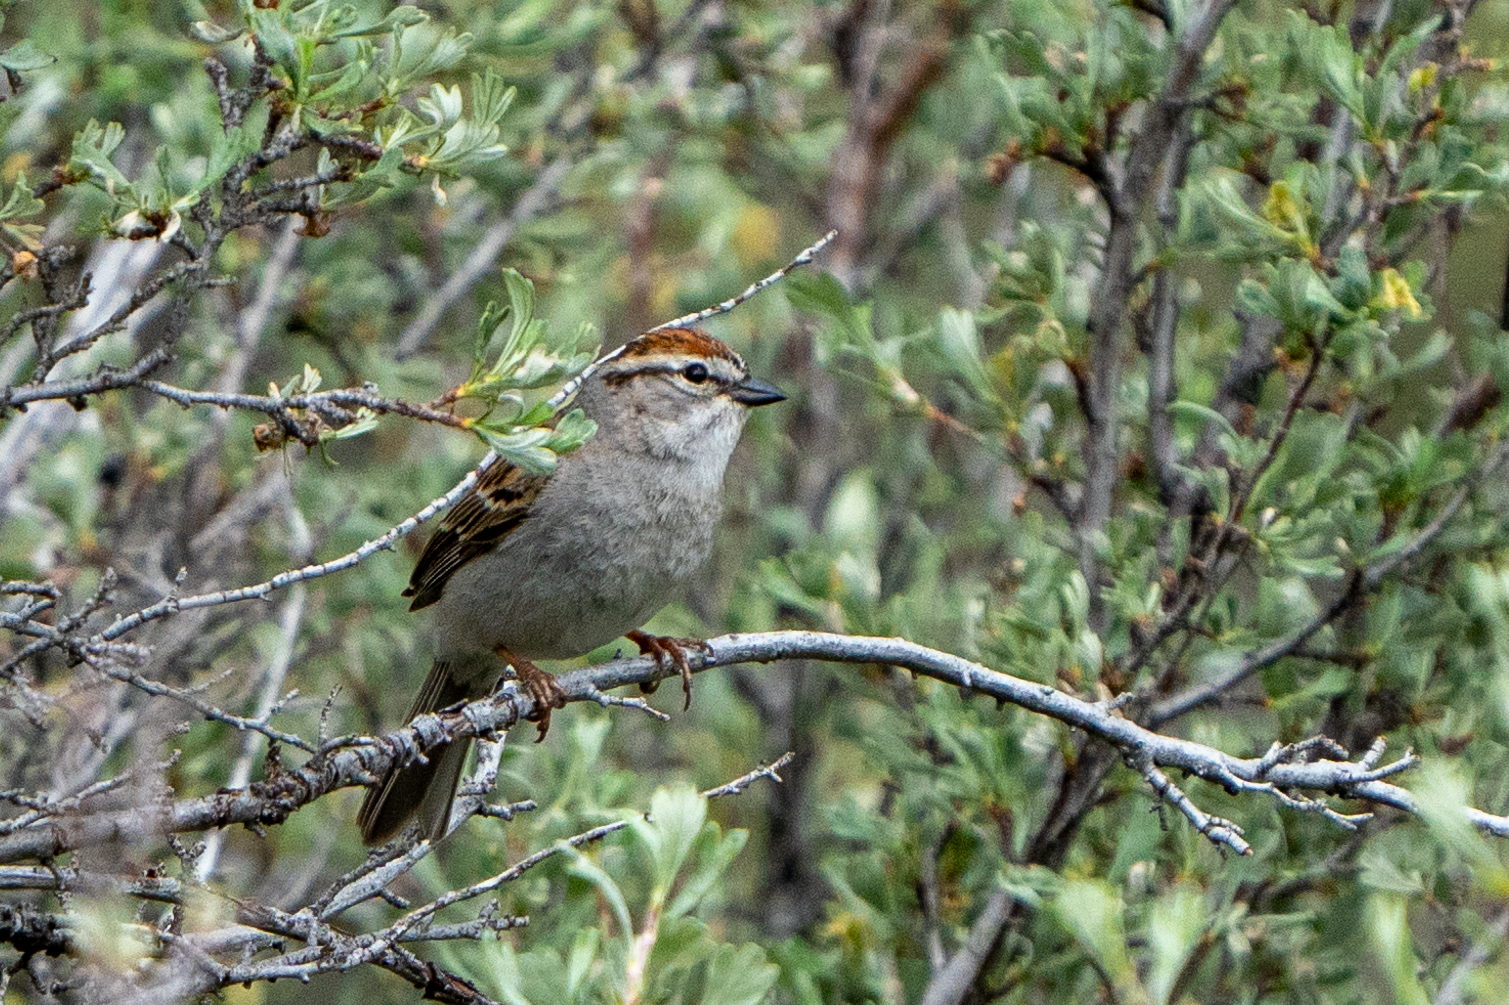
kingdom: Animalia
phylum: Chordata
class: Aves
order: Passeriformes
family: Passerellidae
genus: Spizella
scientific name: Spizella passerina
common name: Chipping sparrow
